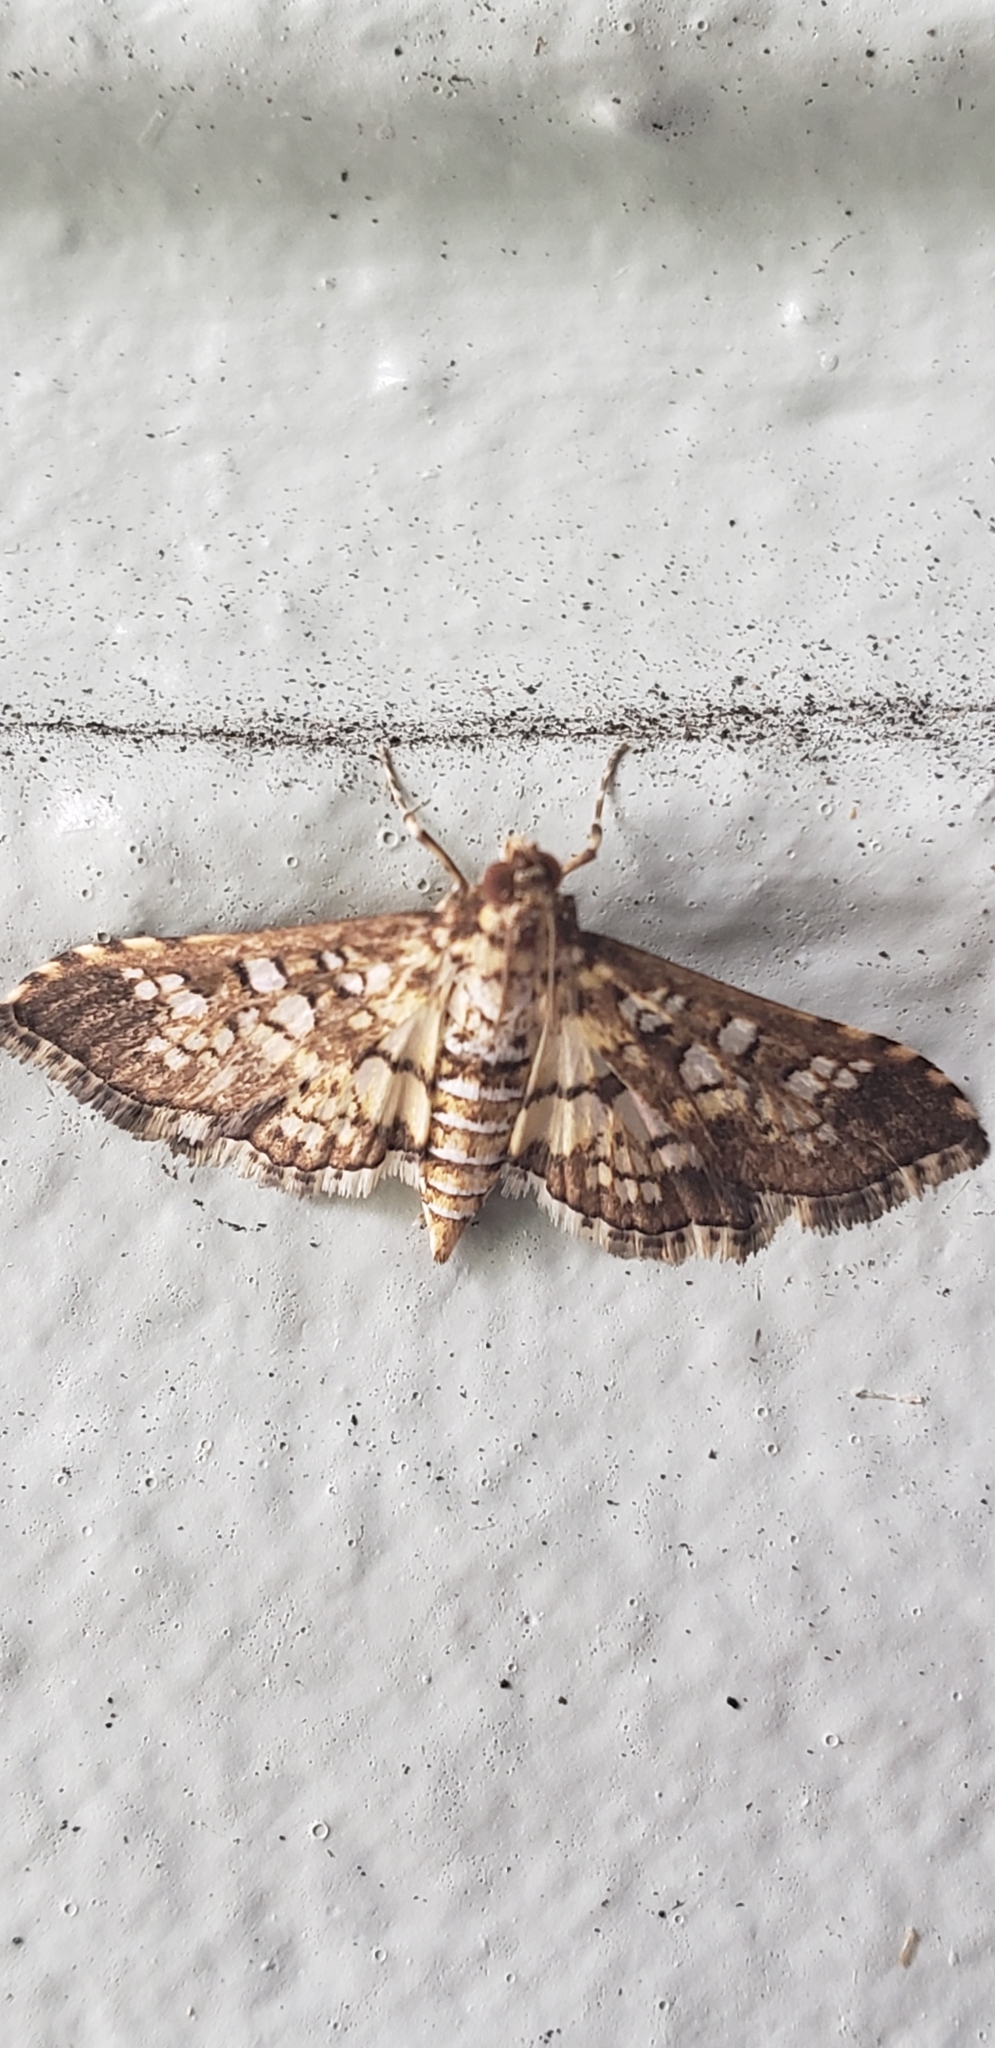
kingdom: Animalia
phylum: Arthropoda
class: Insecta
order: Lepidoptera
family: Crambidae
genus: Samea
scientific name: Samea ecclesialis
